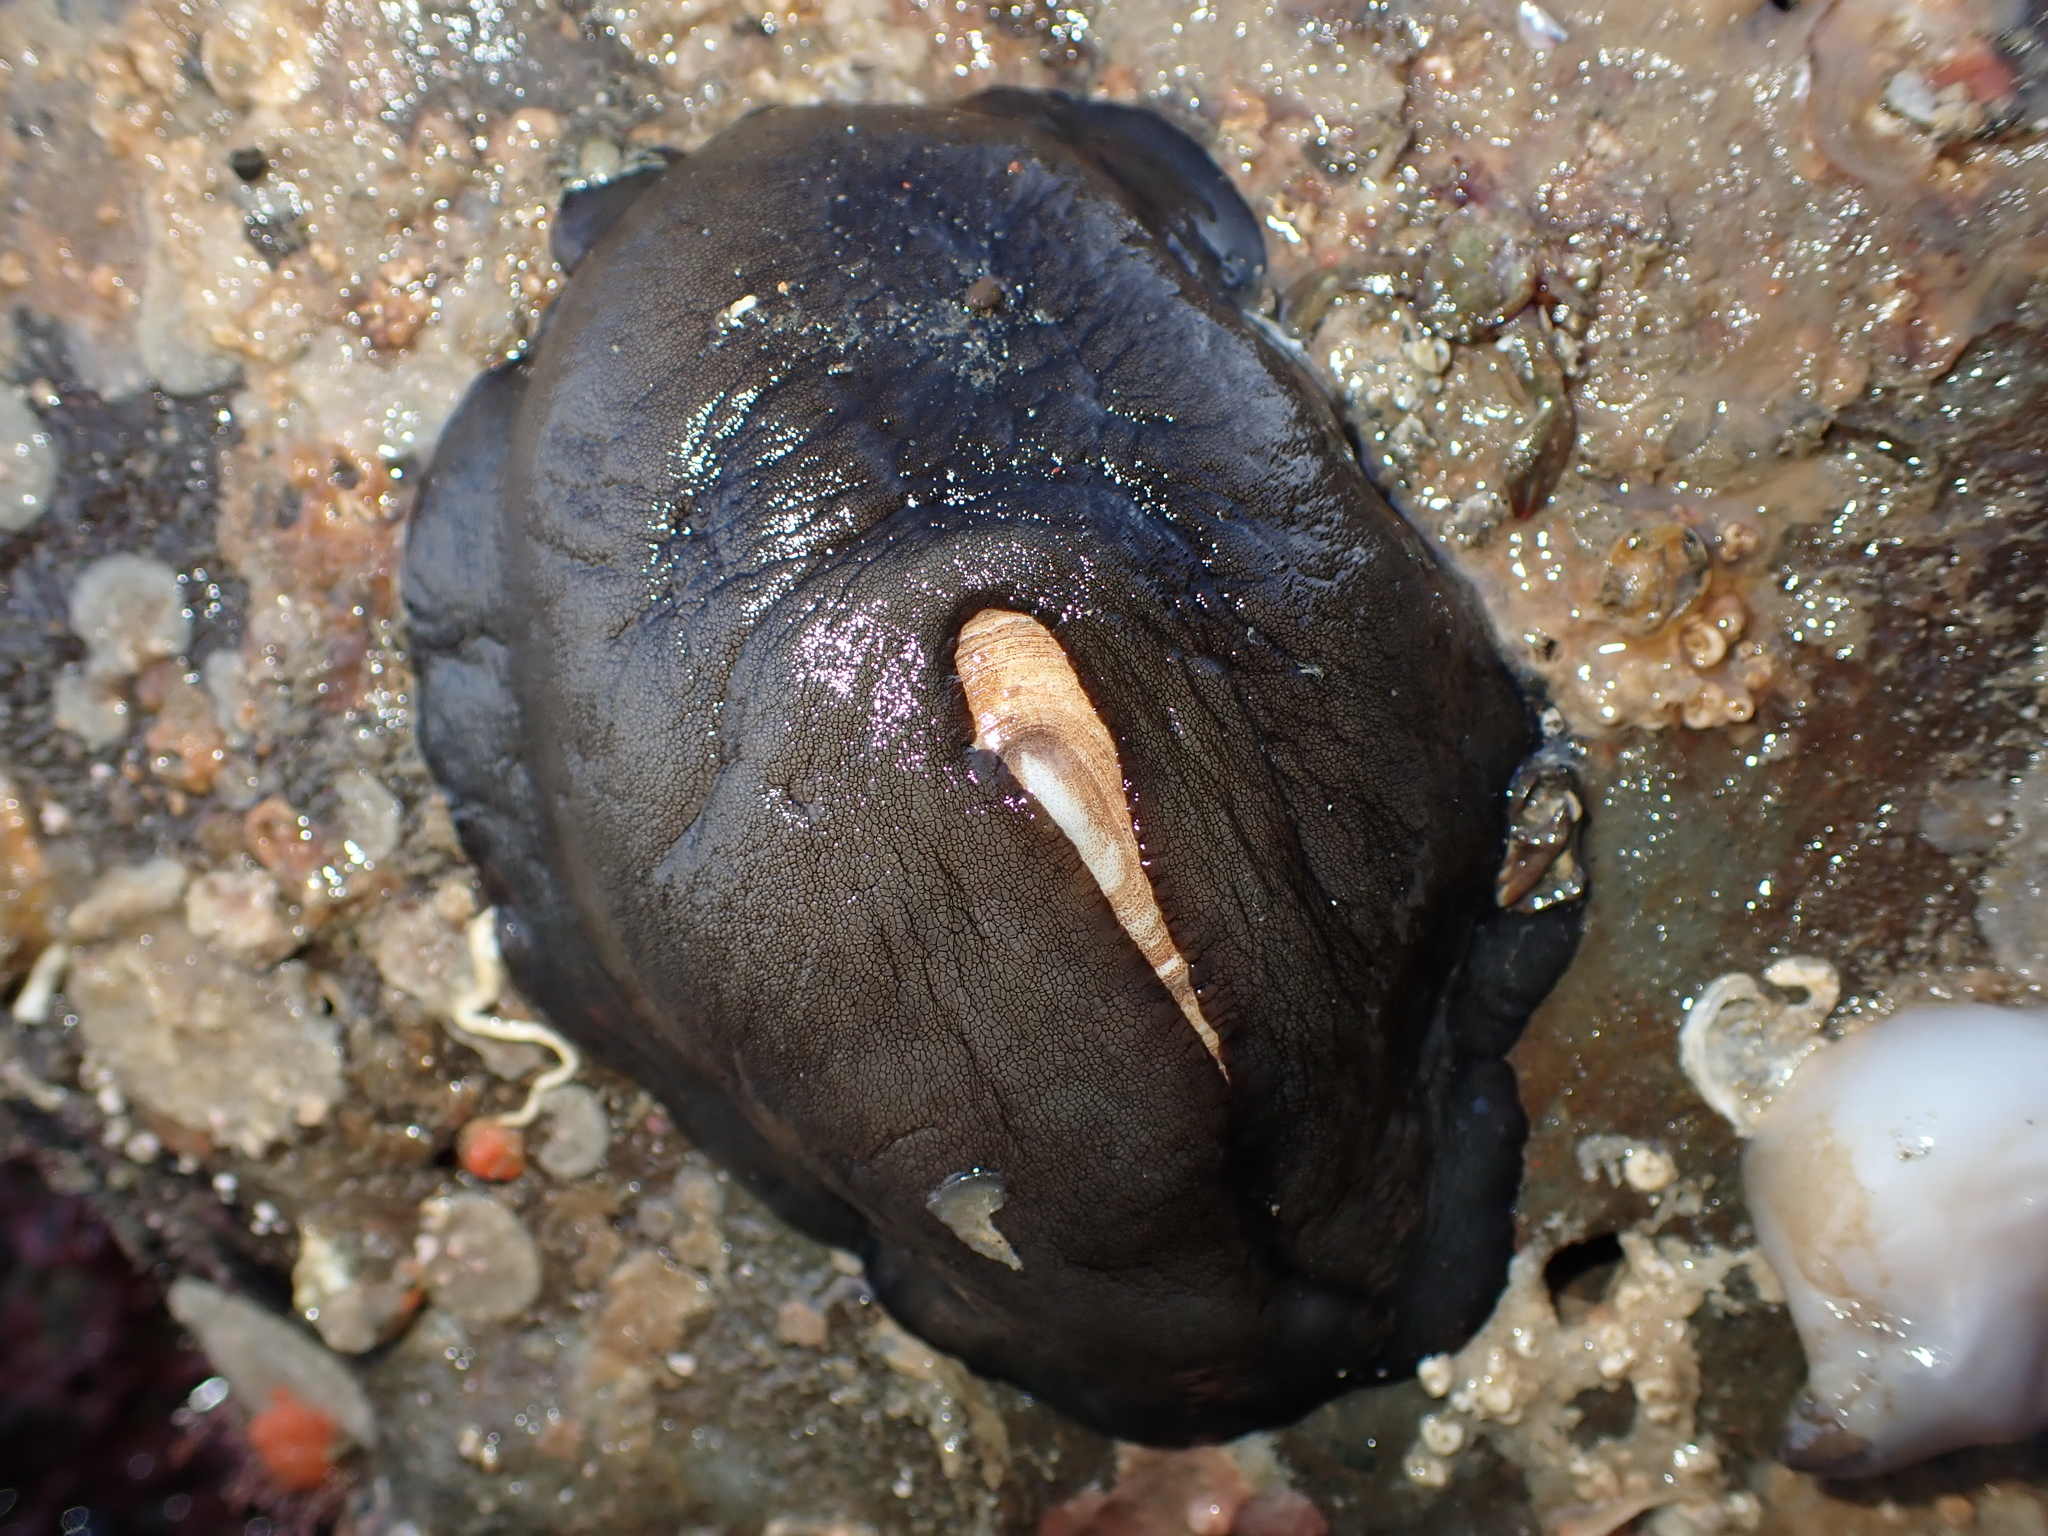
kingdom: Animalia
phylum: Mollusca
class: Gastropoda
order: Lepetellida
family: Fissurellidae
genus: Scutus
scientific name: Scutus breviculus
